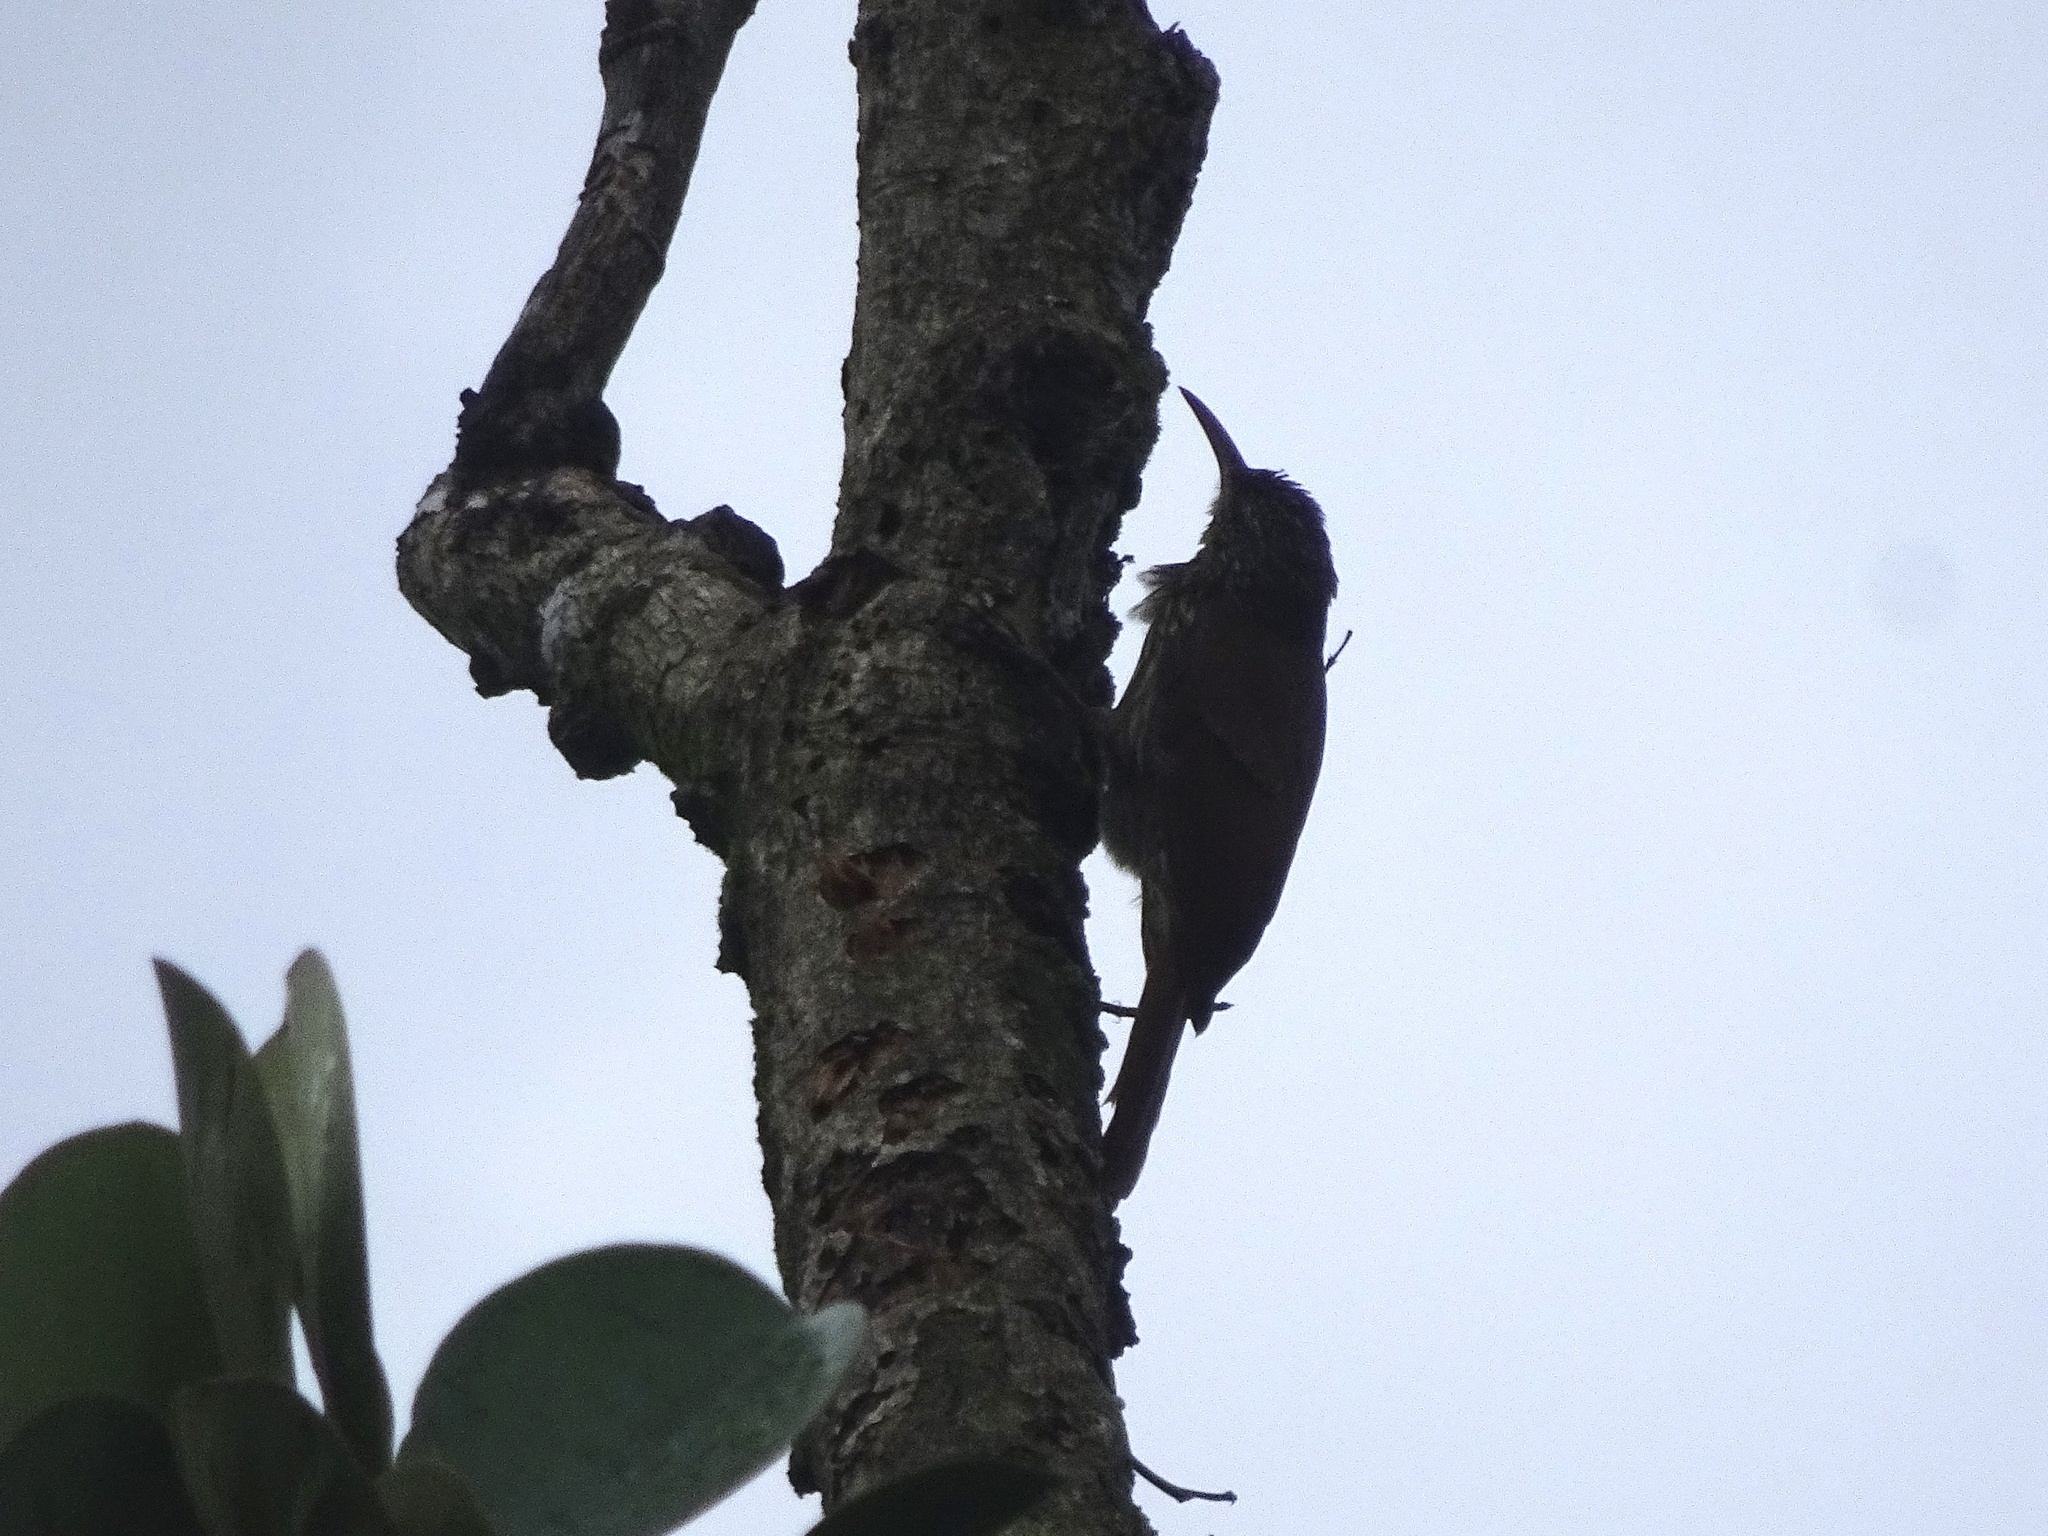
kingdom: Animalia
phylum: Chordata
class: Aves
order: Passeriformes
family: Furnariidae
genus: Lepidocolaptes
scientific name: Lepidocolaptes souleyetii
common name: Streak-headed woodcreeper
